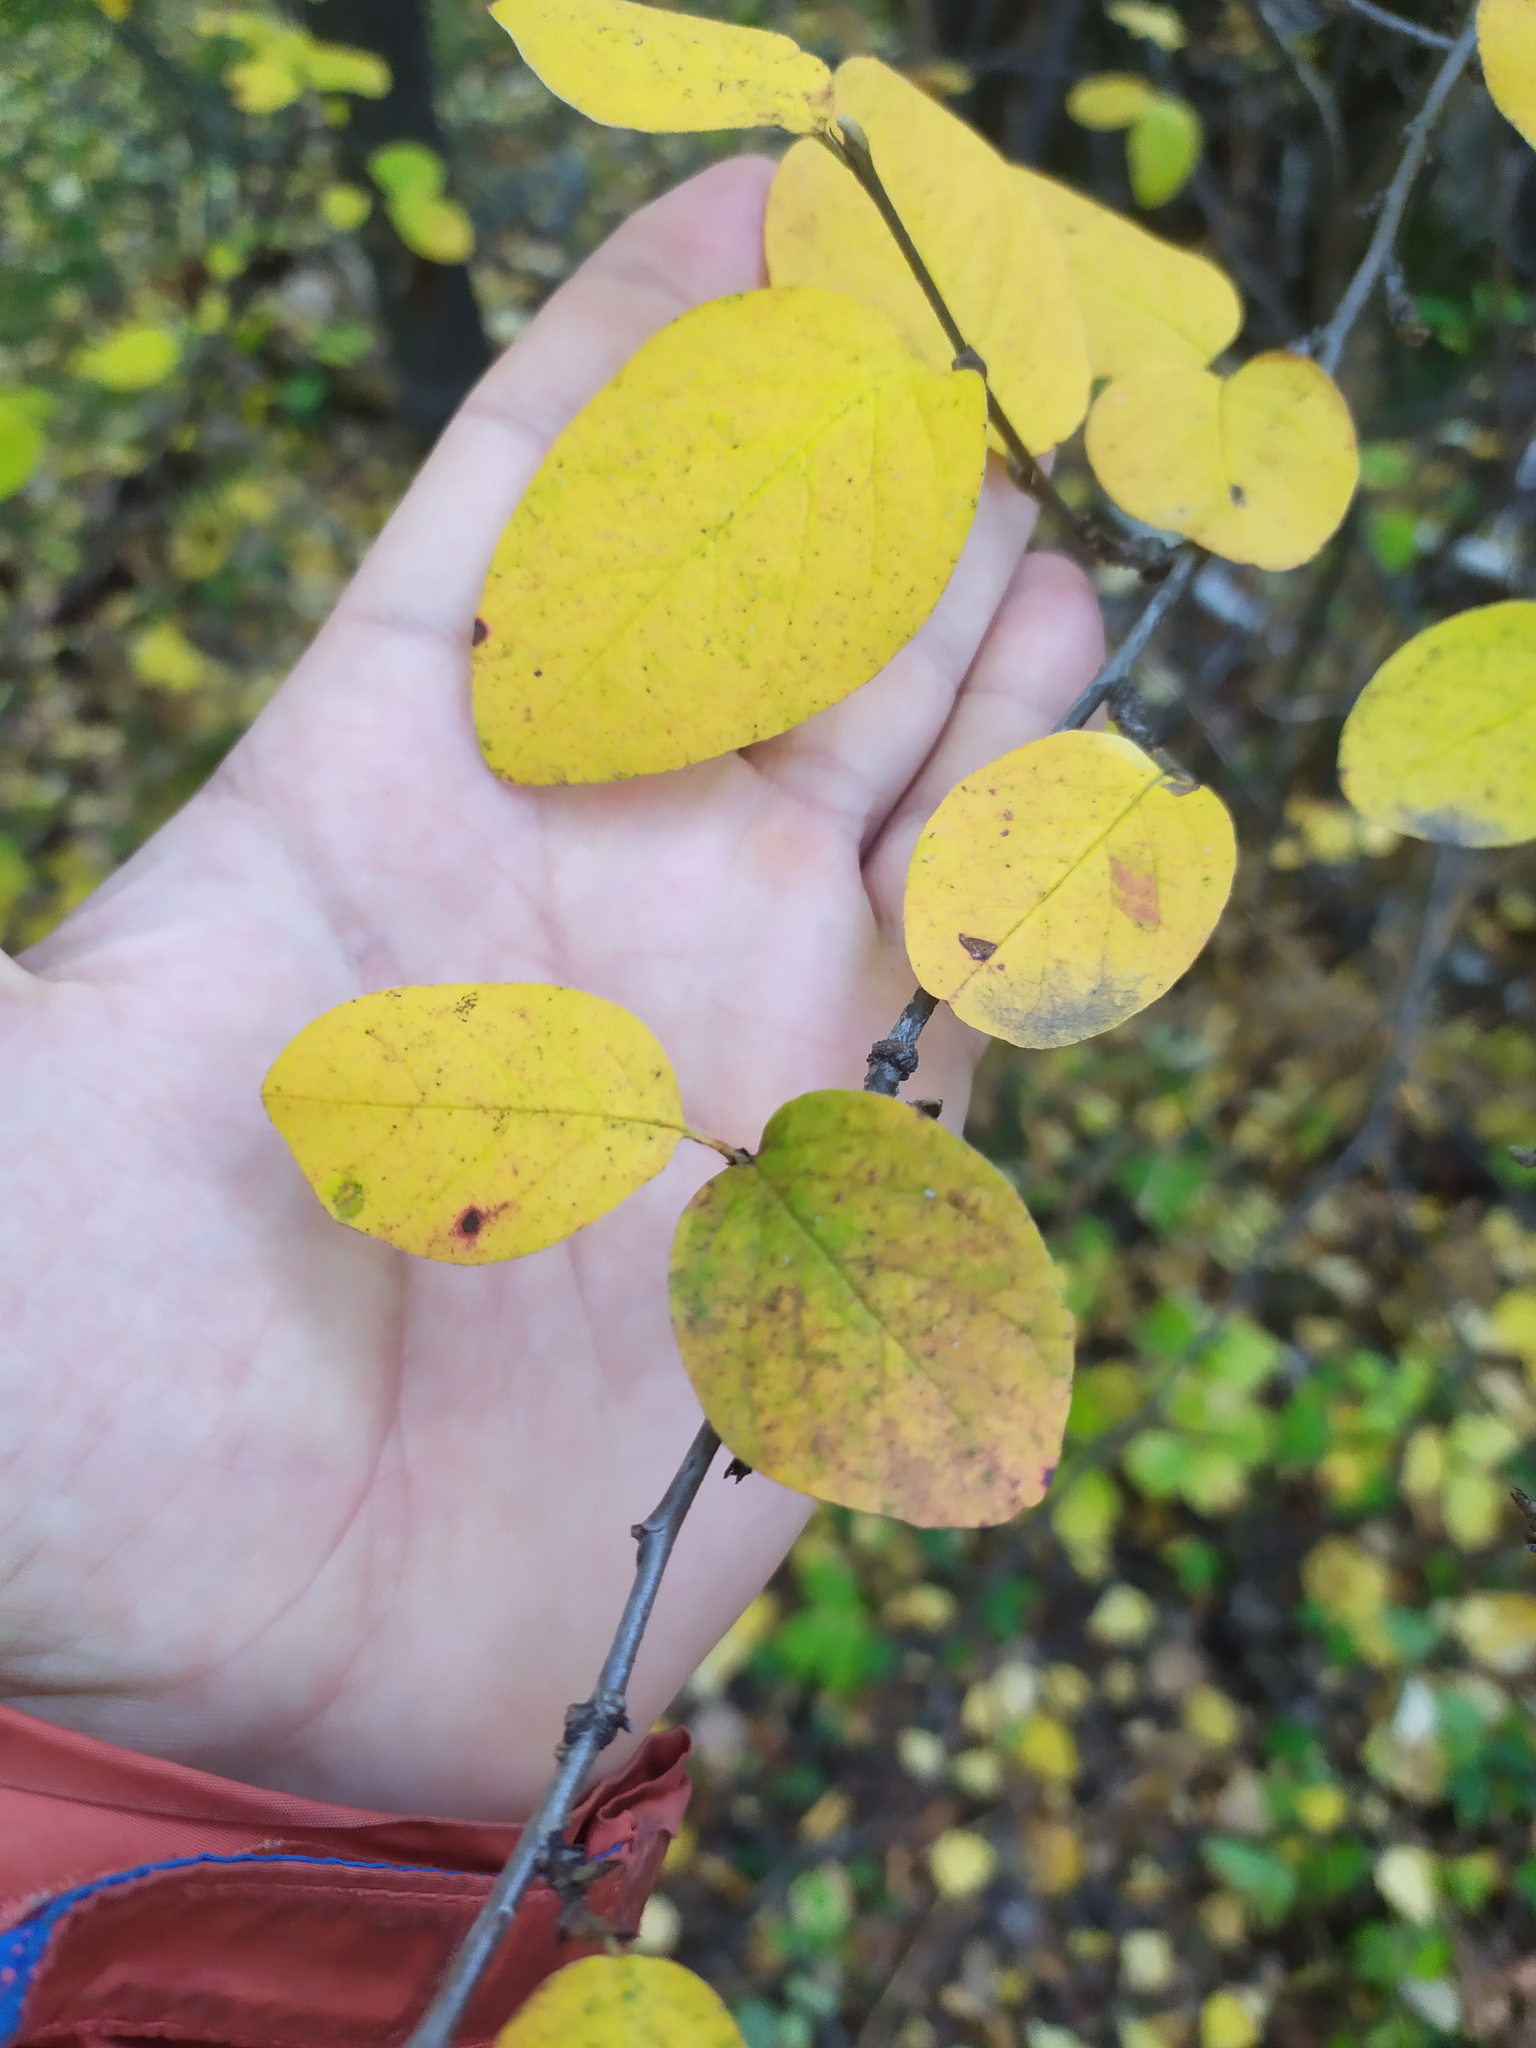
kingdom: Plantae
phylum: Tracheophyta
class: Magnoliopsida
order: Rosales
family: Rosaceae
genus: Cotoneaster
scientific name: Cotoneaster melanocarpus
